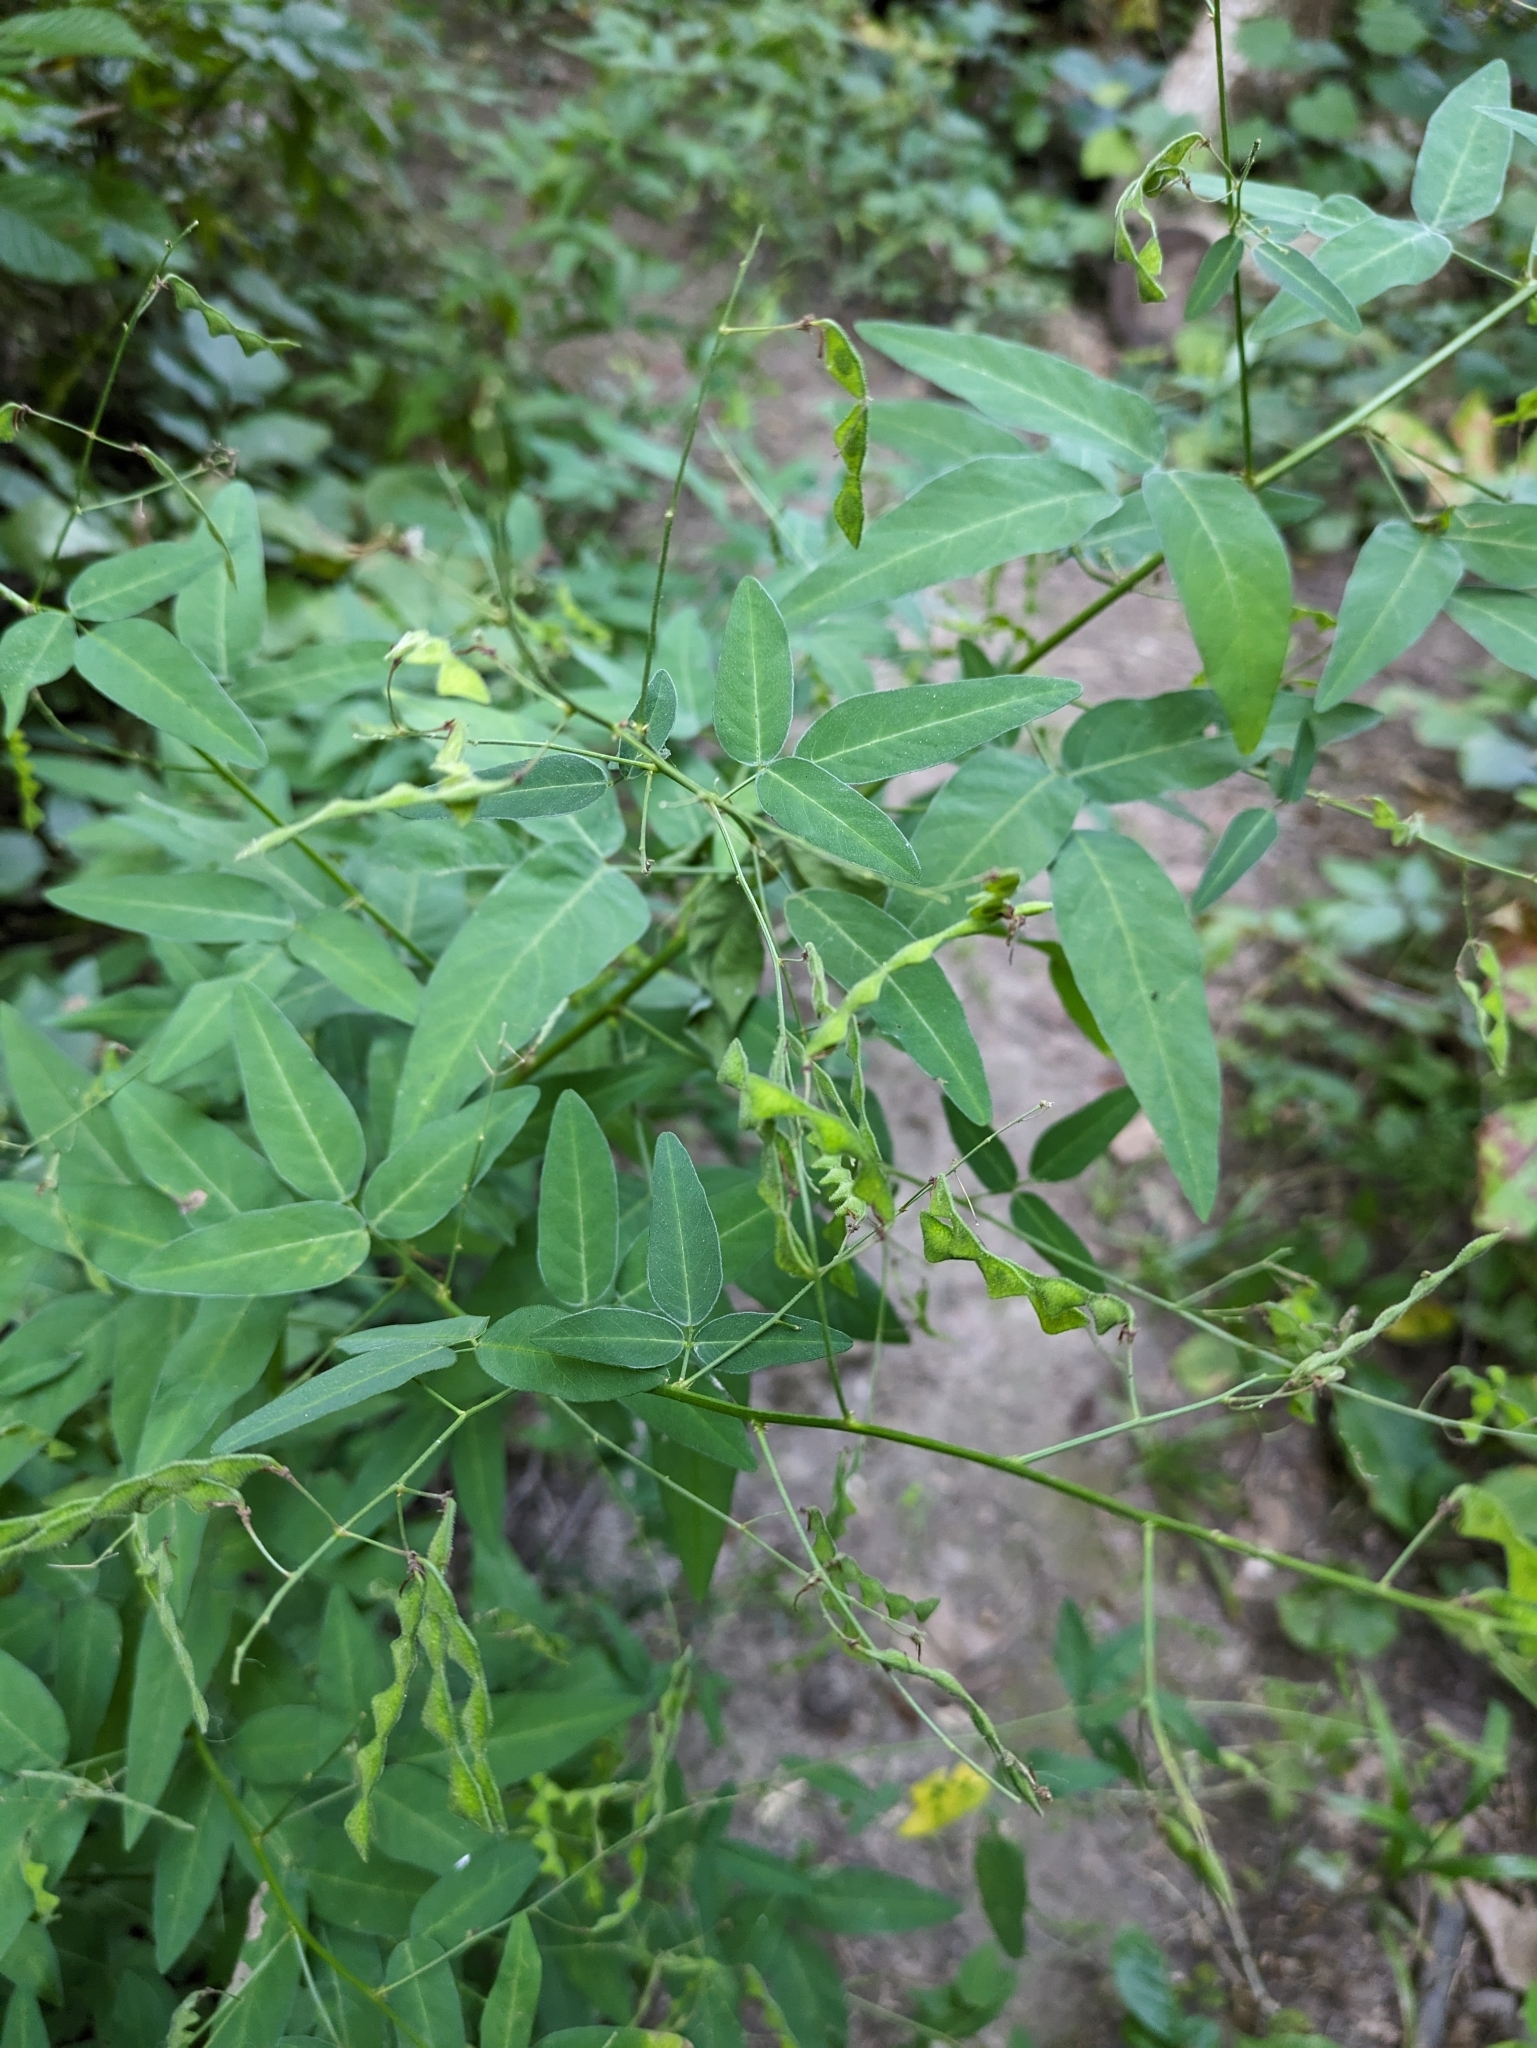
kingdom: Plantae
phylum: Tracheophyta
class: Magnoliopsida
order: Fabales
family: Fabaceae
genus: Desmodium
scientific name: Desmodium paniculatum
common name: Panicled tick-clover
